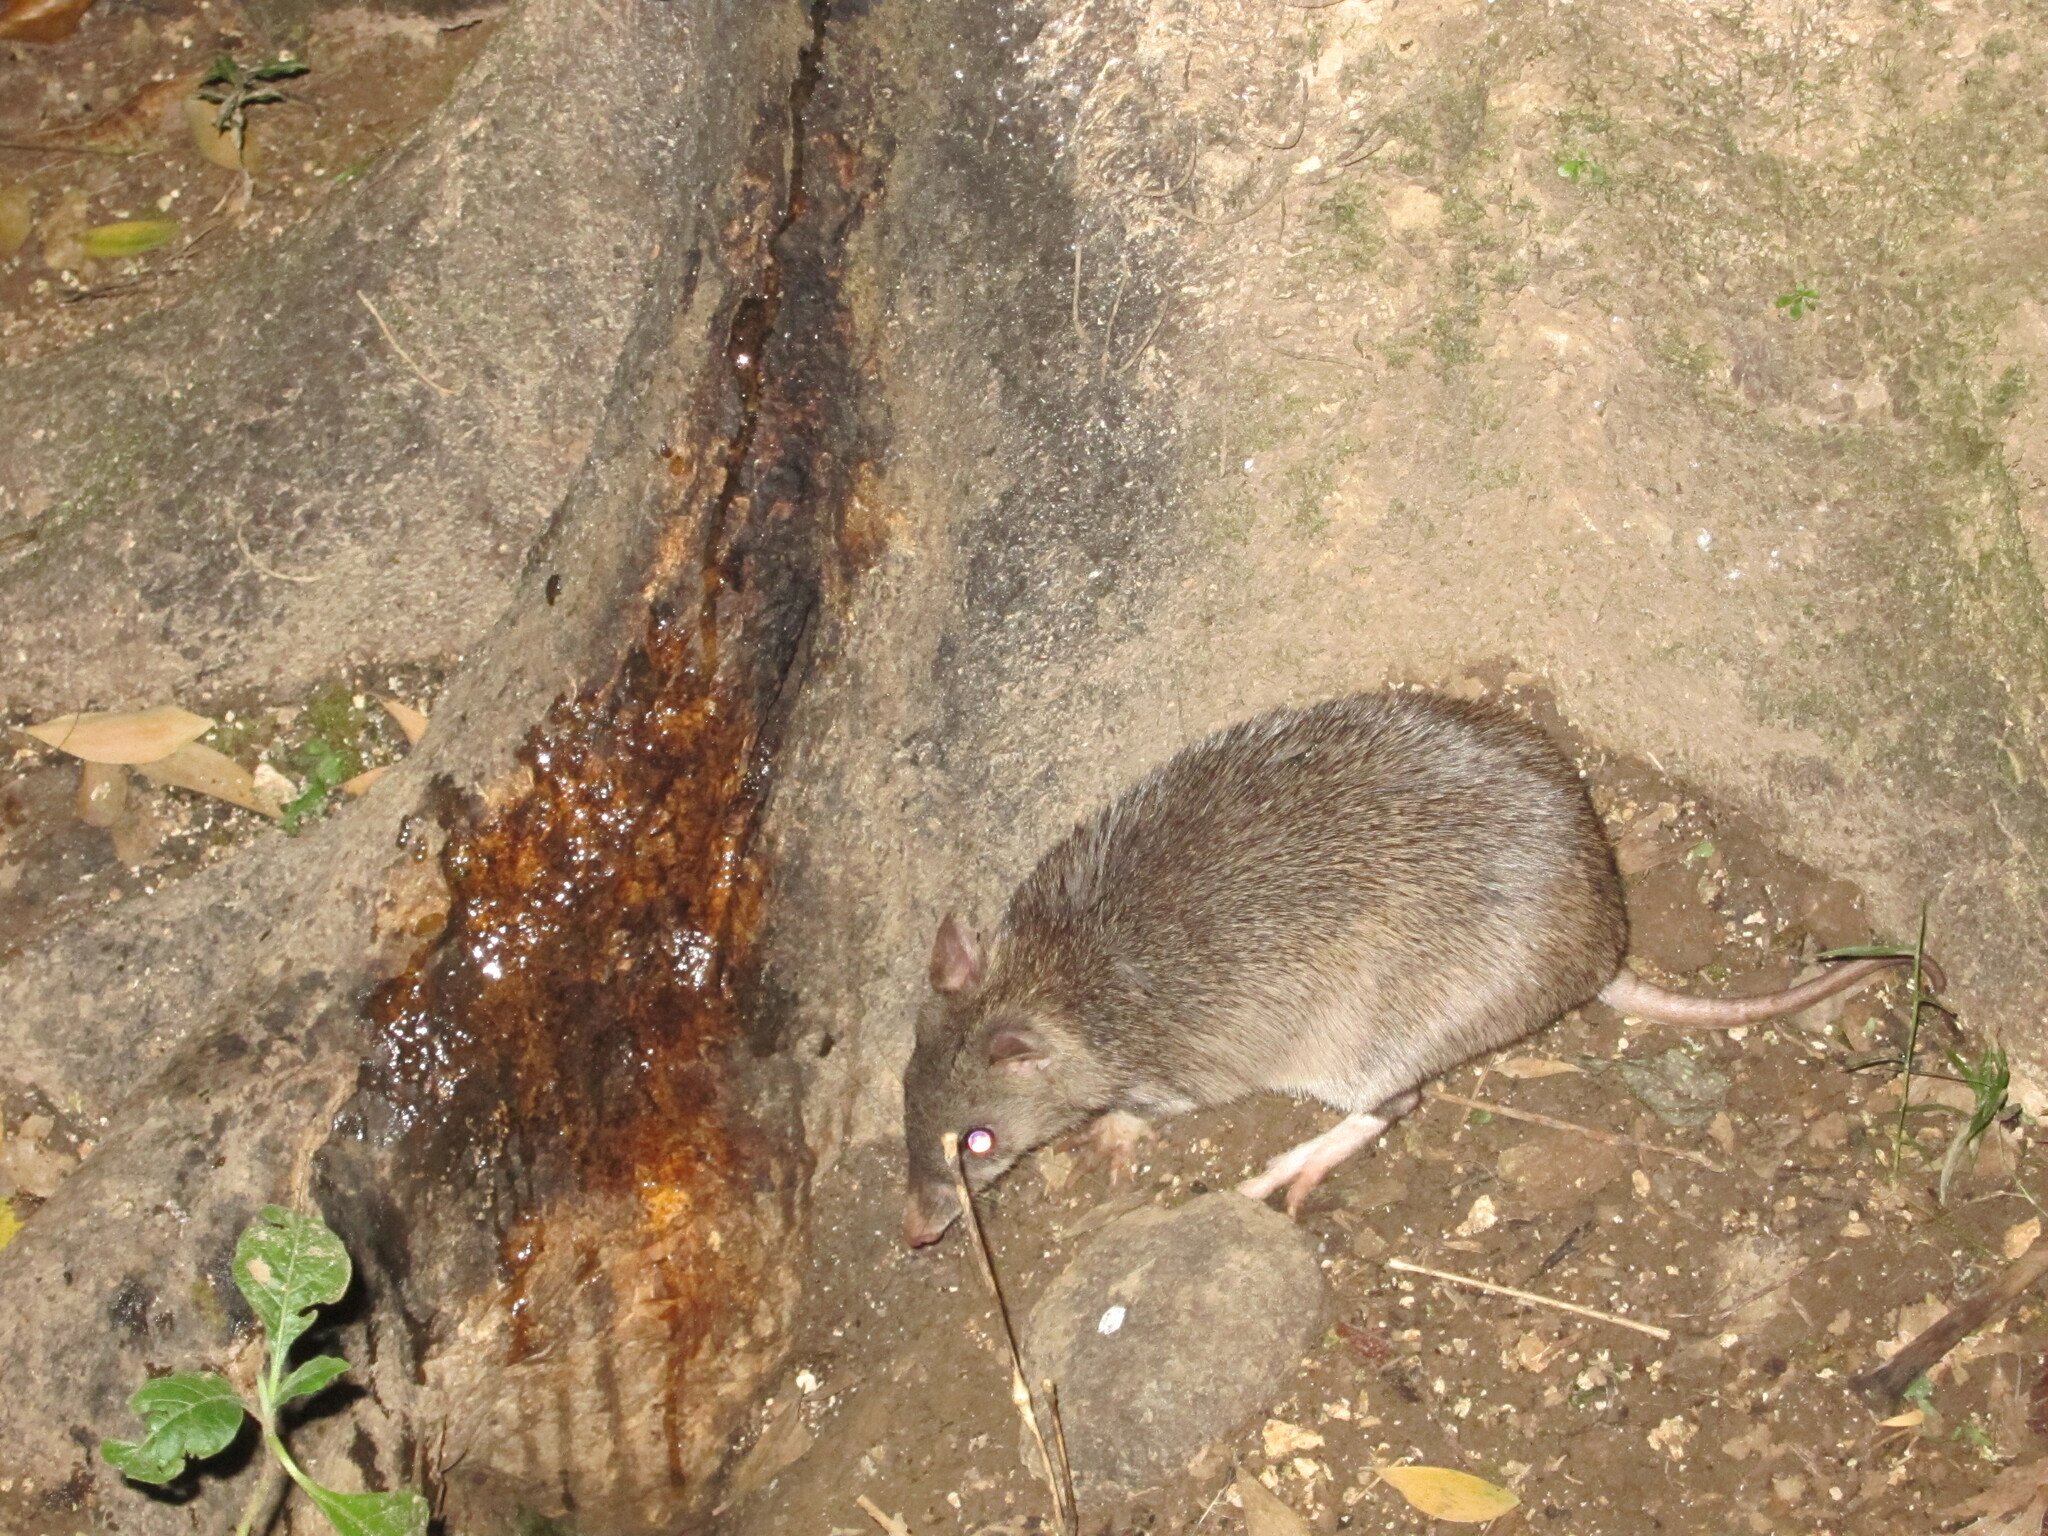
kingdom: Animalia
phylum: Chordata
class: Mammalia
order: Peramelemorphia
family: Peramelidae
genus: Perameles
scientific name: Perameles pallescens
